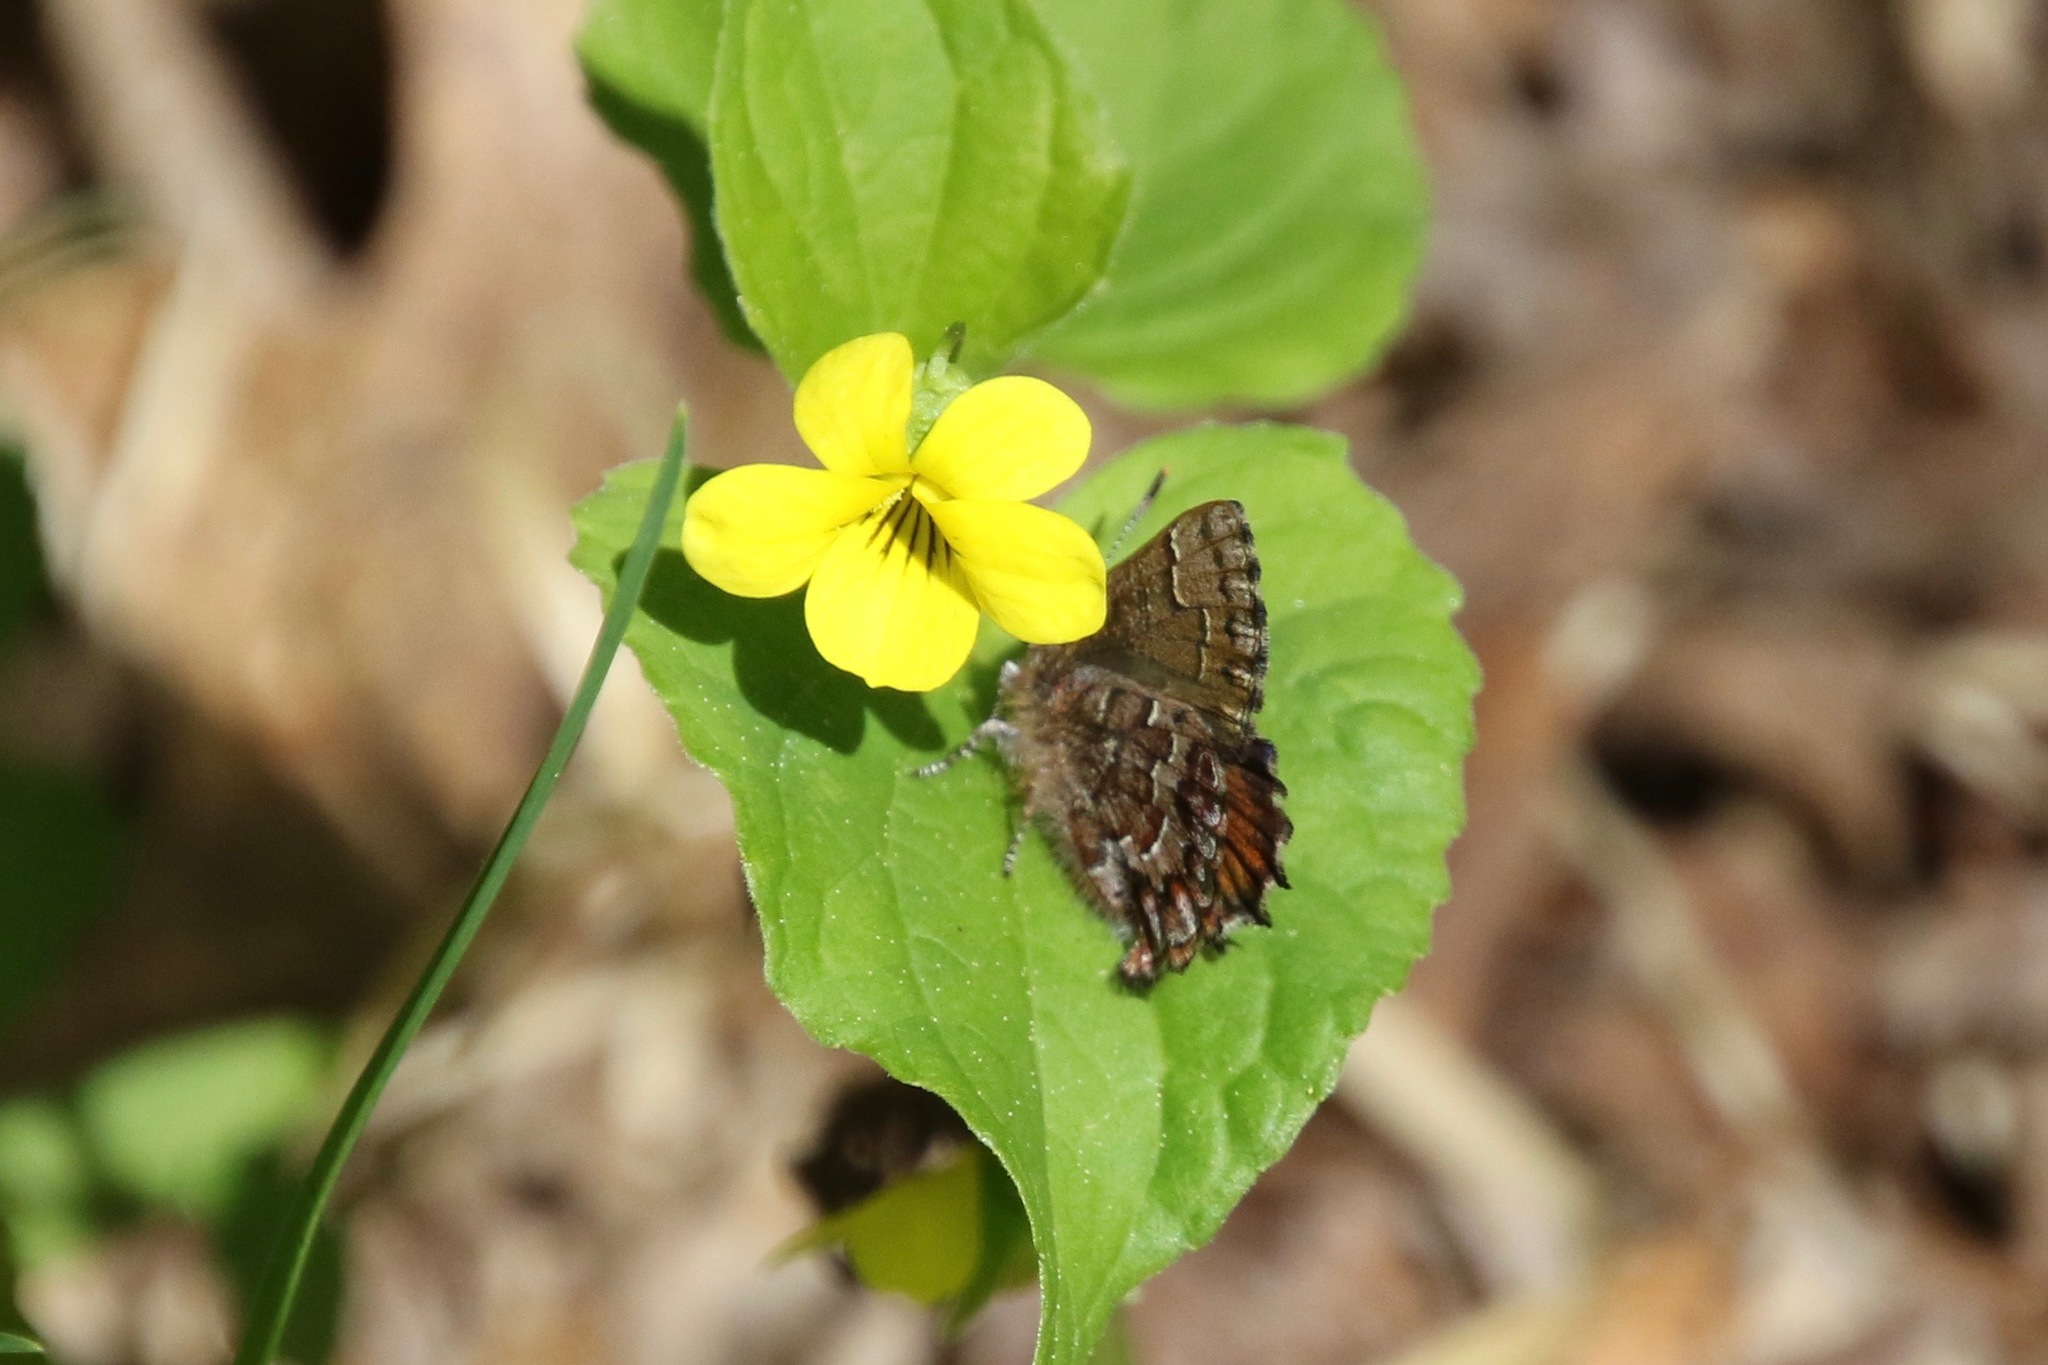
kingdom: Animalia
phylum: Arthropoda
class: Insecta
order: Lepidoptera
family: Lycaenidae
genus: Incisalia
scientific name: Incisalia niphon
